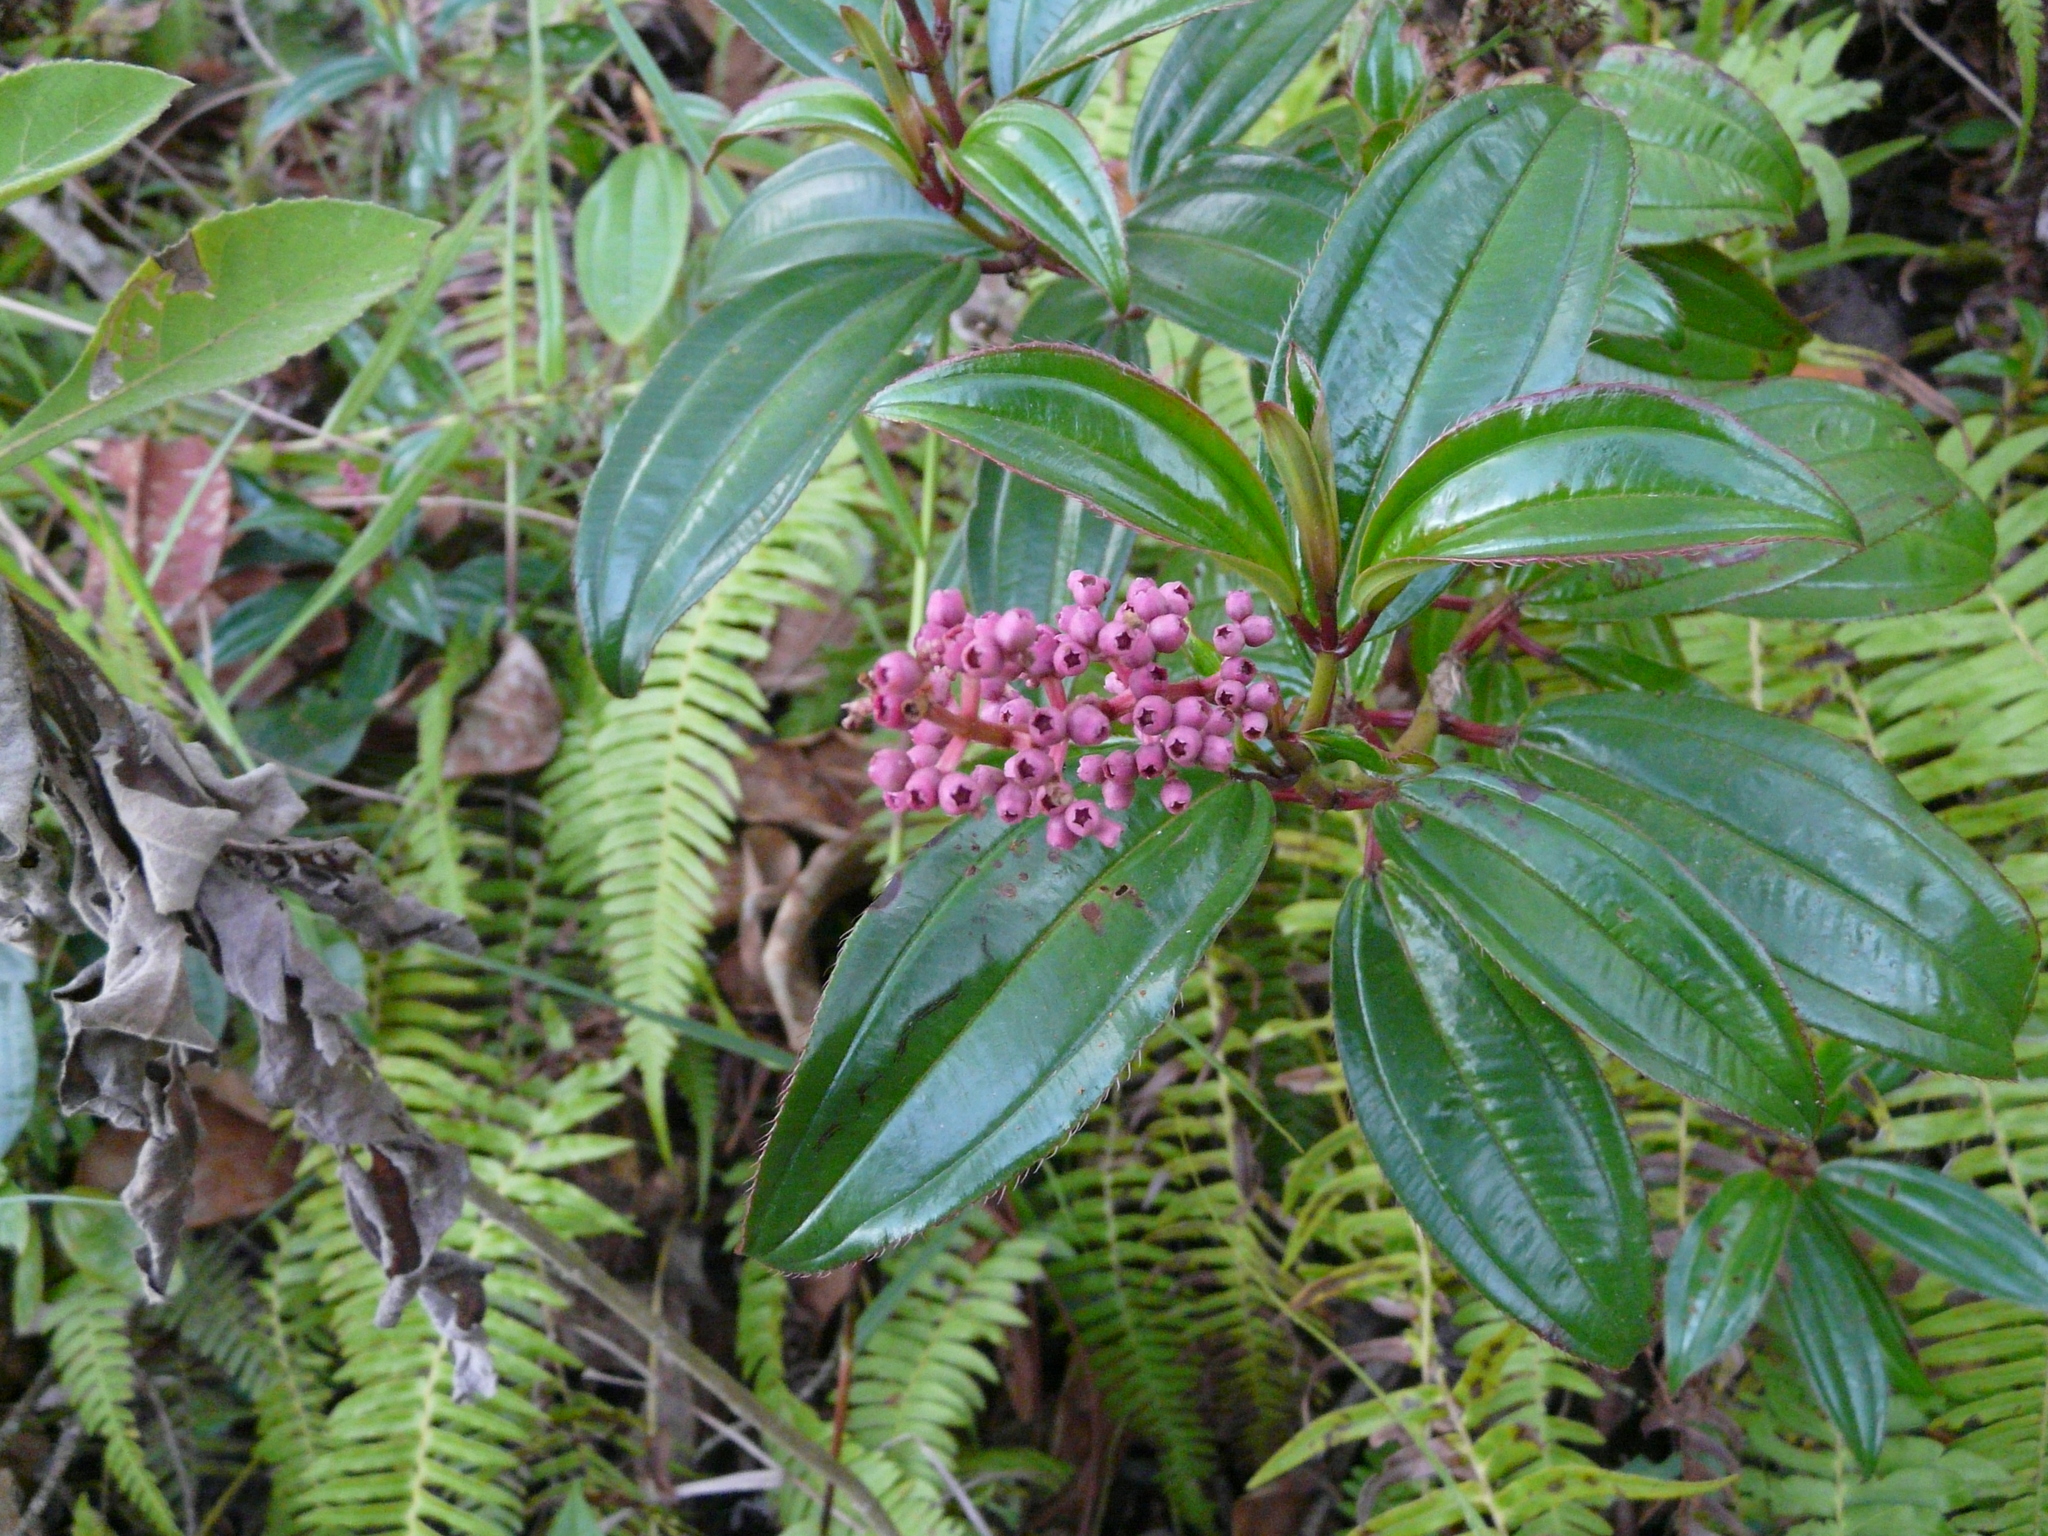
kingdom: Plantae
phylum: Tracheophyta
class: Magnoliopsida
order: Myrtales
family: Melastomataceae
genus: Miconia
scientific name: Miconia ciliata
